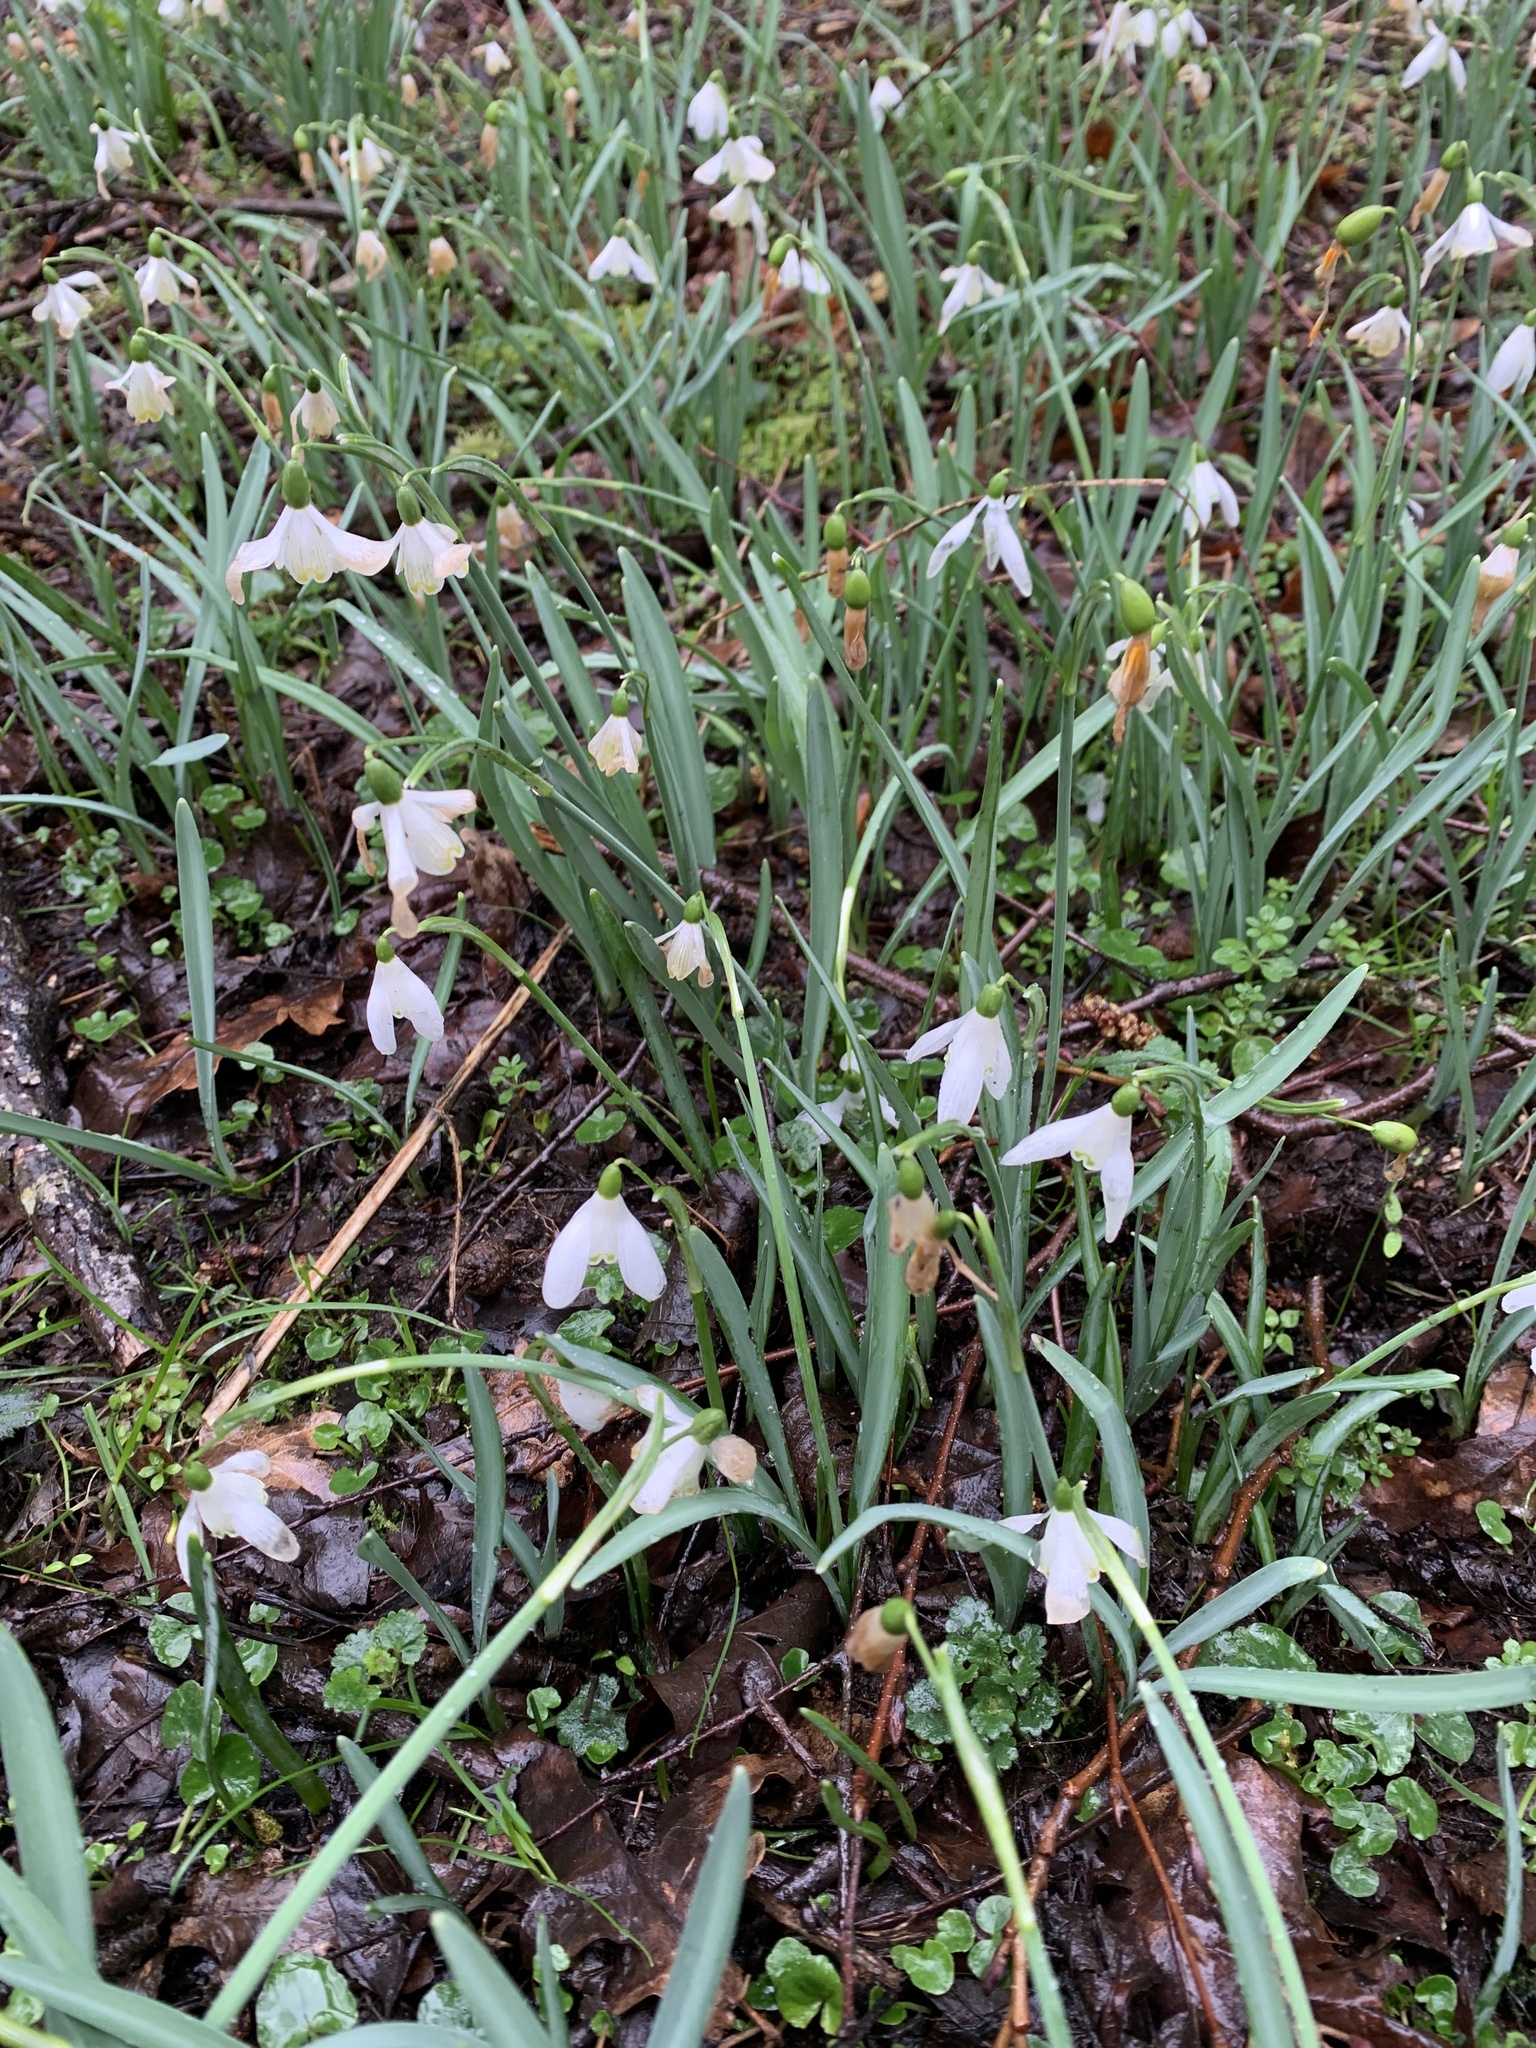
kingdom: Plantae
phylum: Tracheophyta
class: Liliopsida
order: Asparagales
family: Amaryllidaceae
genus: Galanthus
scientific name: Galanthus nivalis
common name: Snowdrop
